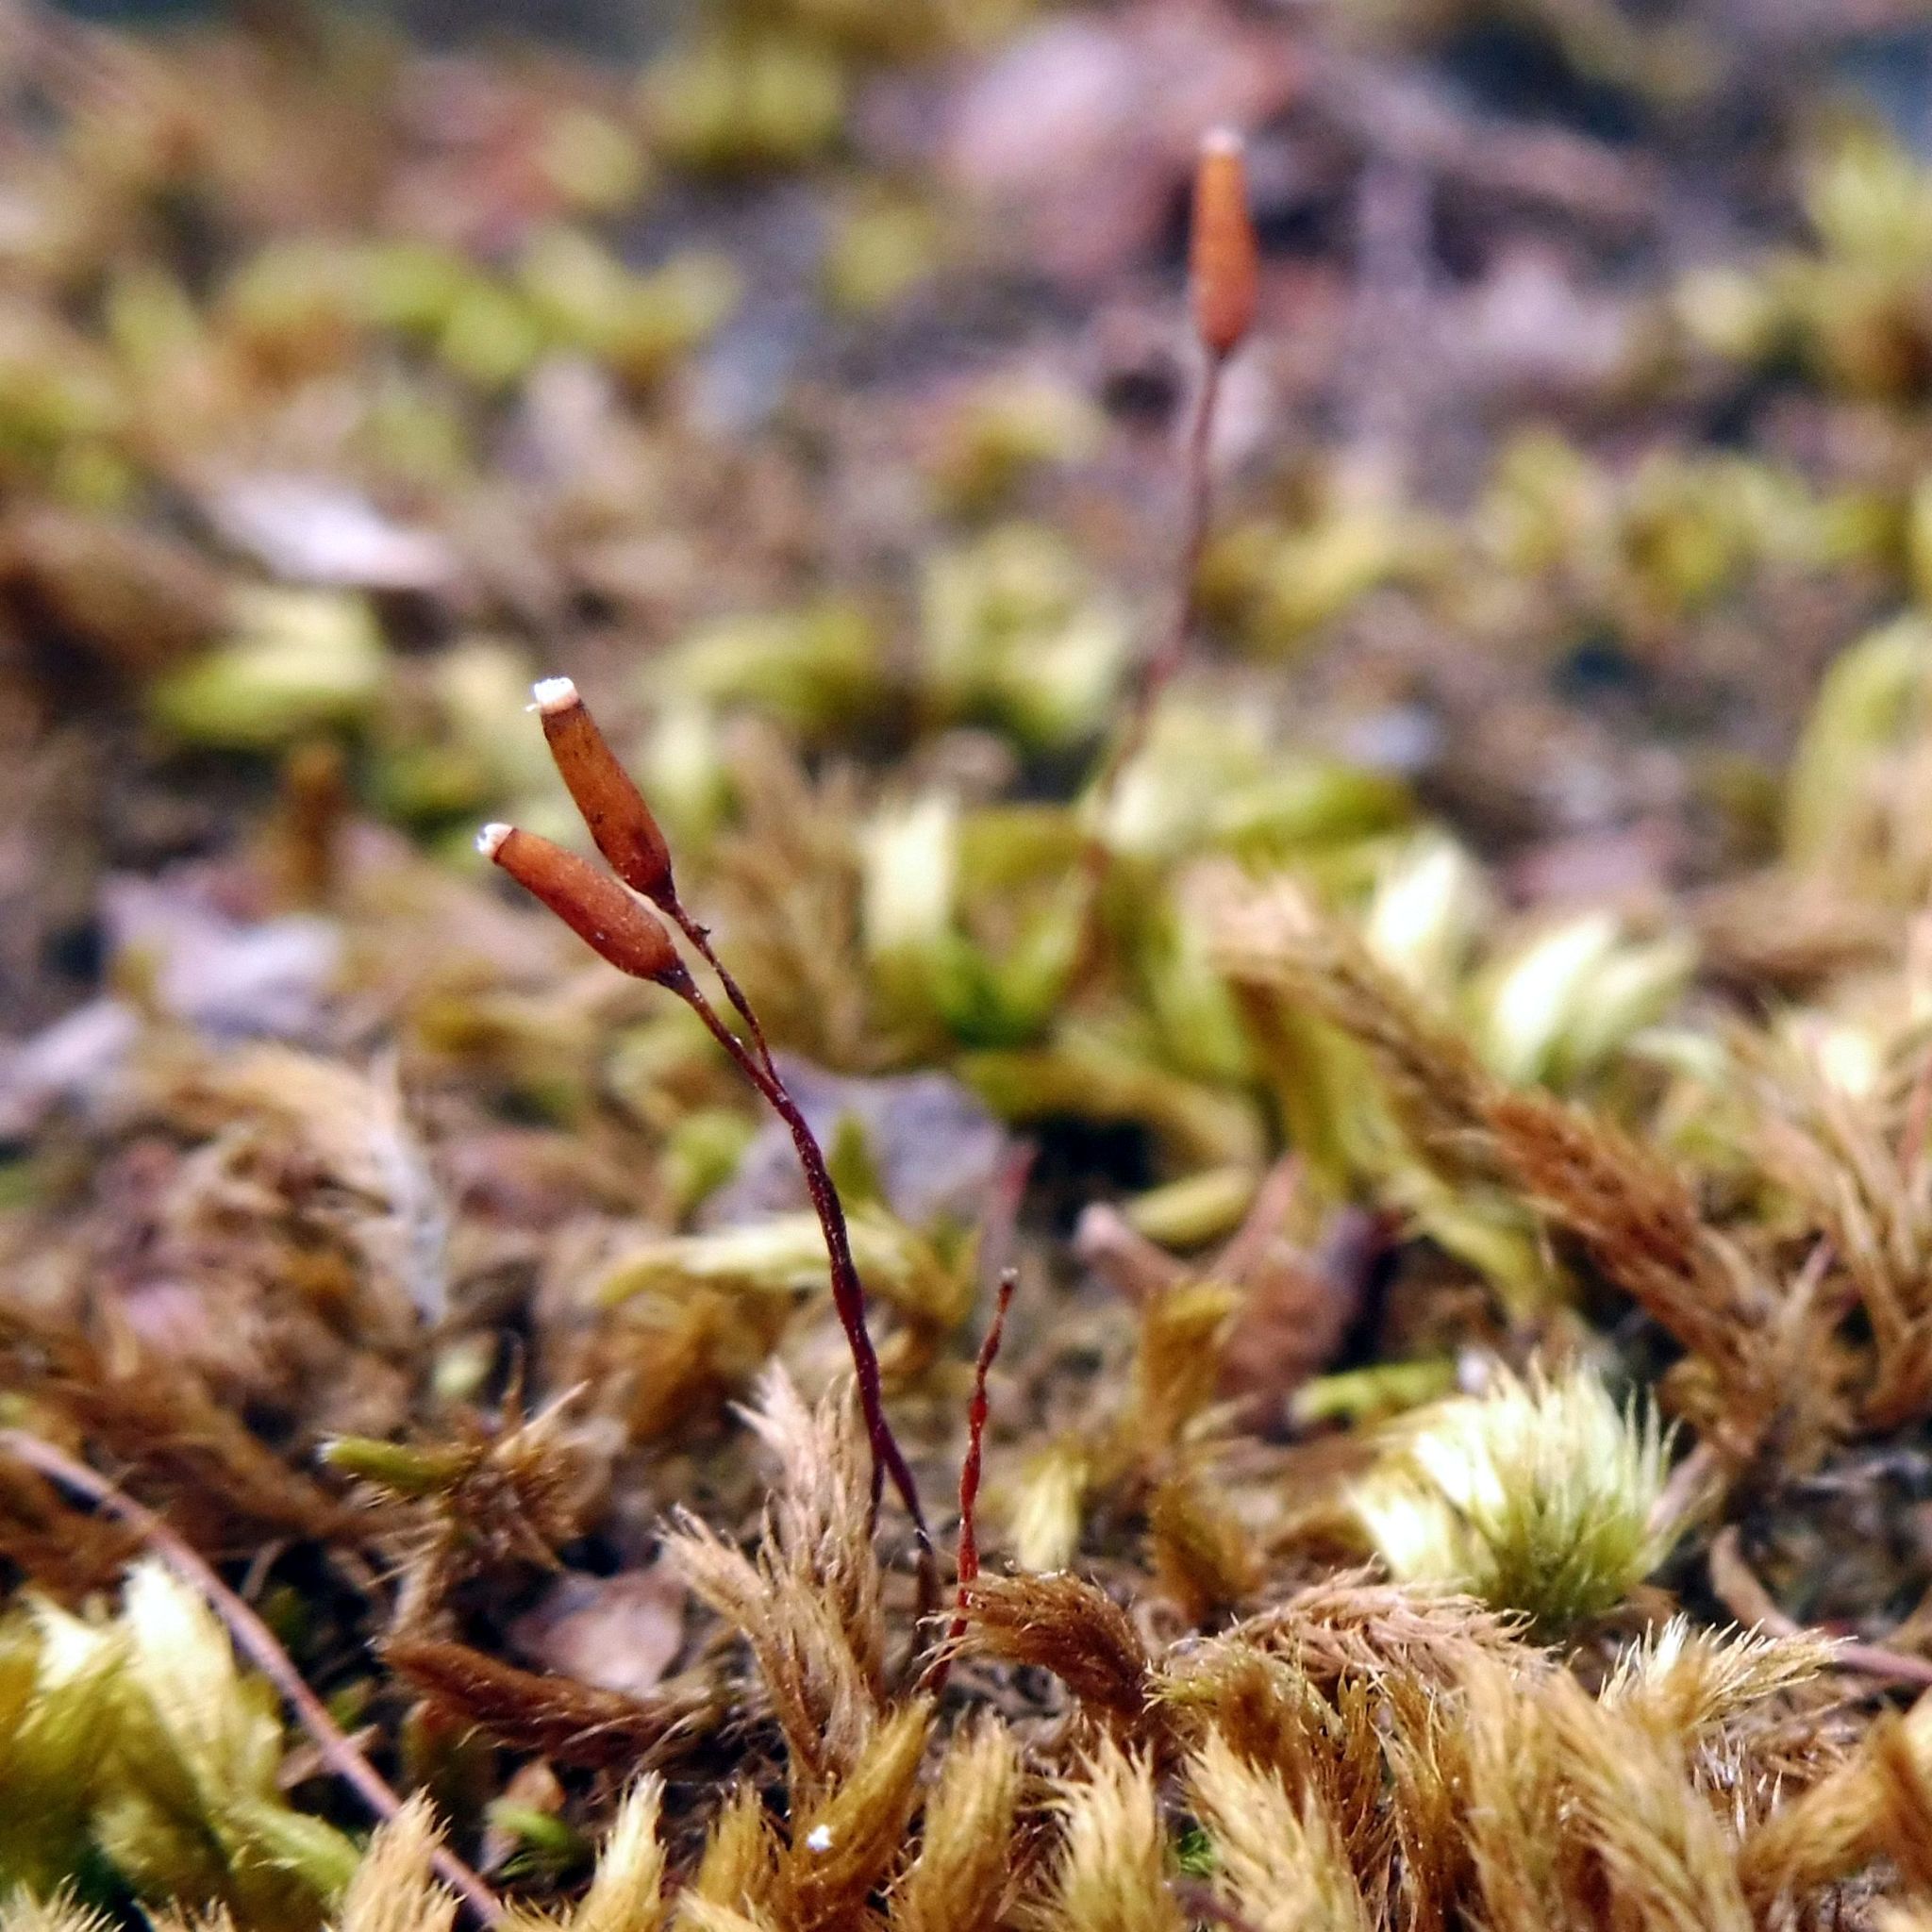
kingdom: Plantae
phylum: Bryophyta
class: Bryopsida
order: Hypnales
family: Brachytheciaceae
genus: Homalothecium
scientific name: Homalothecium sericeum
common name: Silky wall feather-moss
